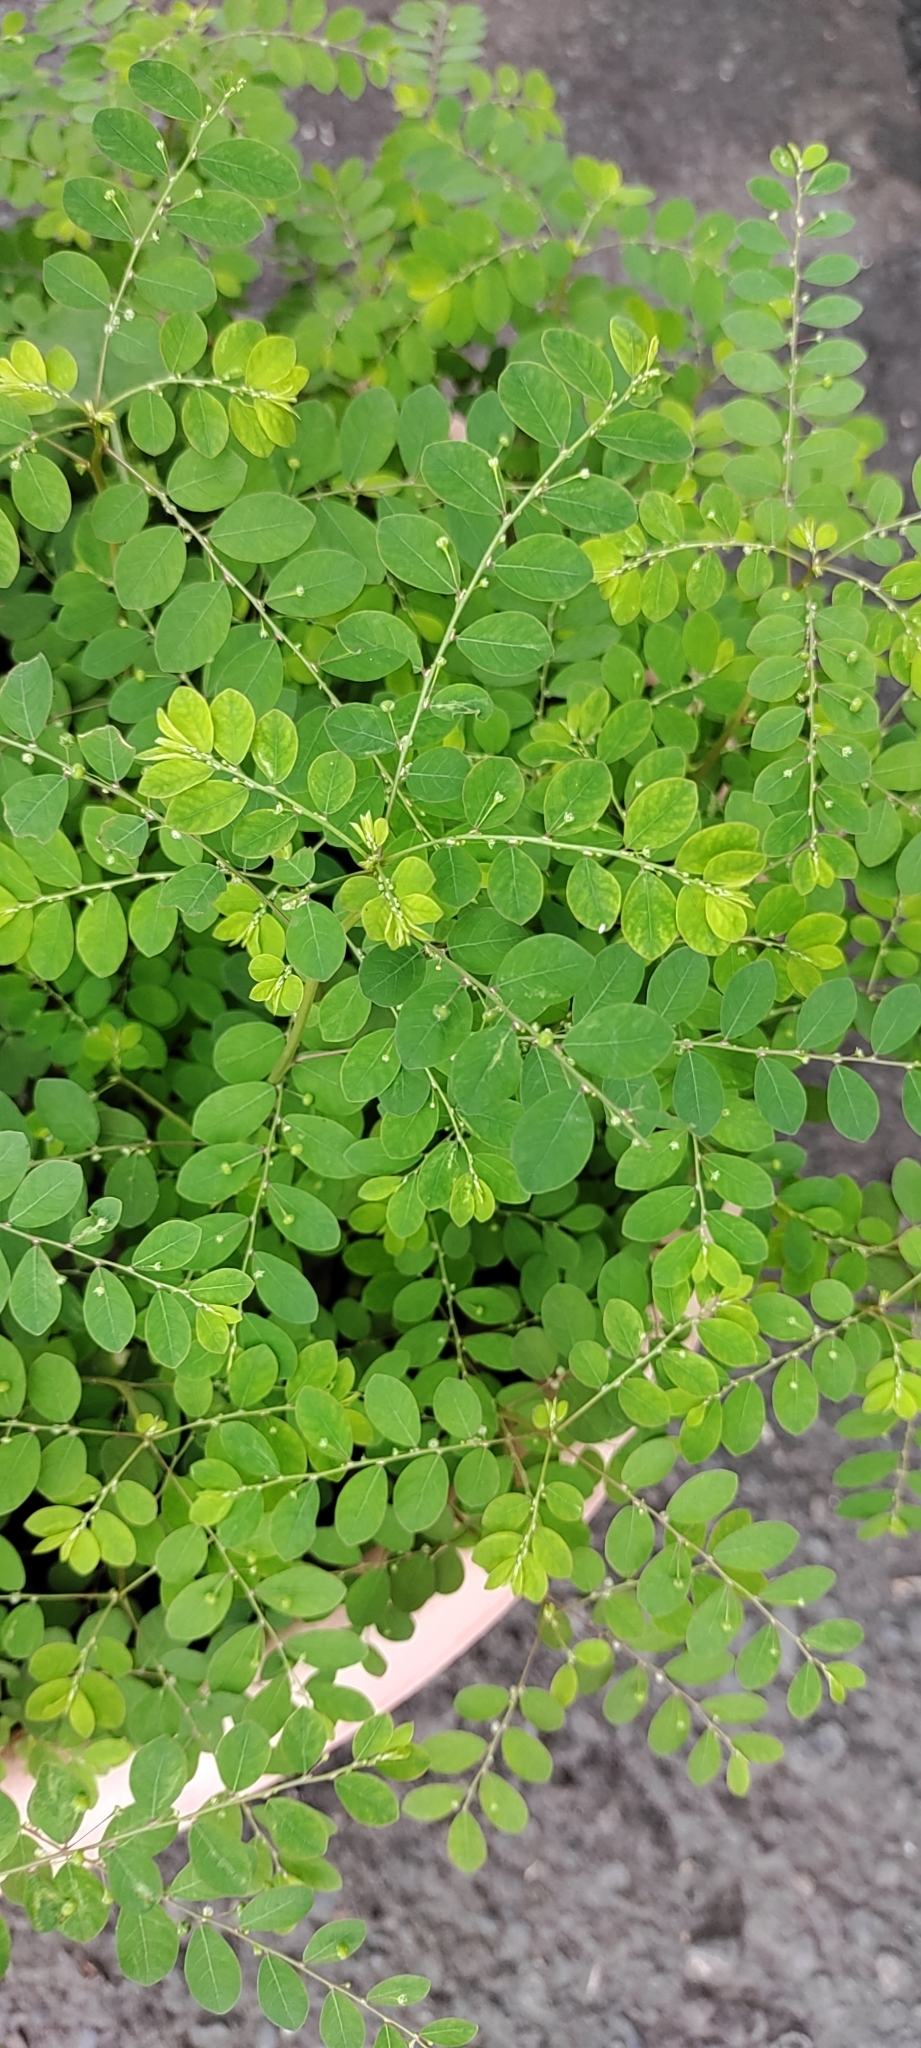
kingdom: Plantae
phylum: Tracheophyta
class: Magnoliopsida
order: Malpighiales
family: Phyllanthaceae
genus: Phyllanthus
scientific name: Phyllanthus tenellus
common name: Mascarene island leaf-flower
